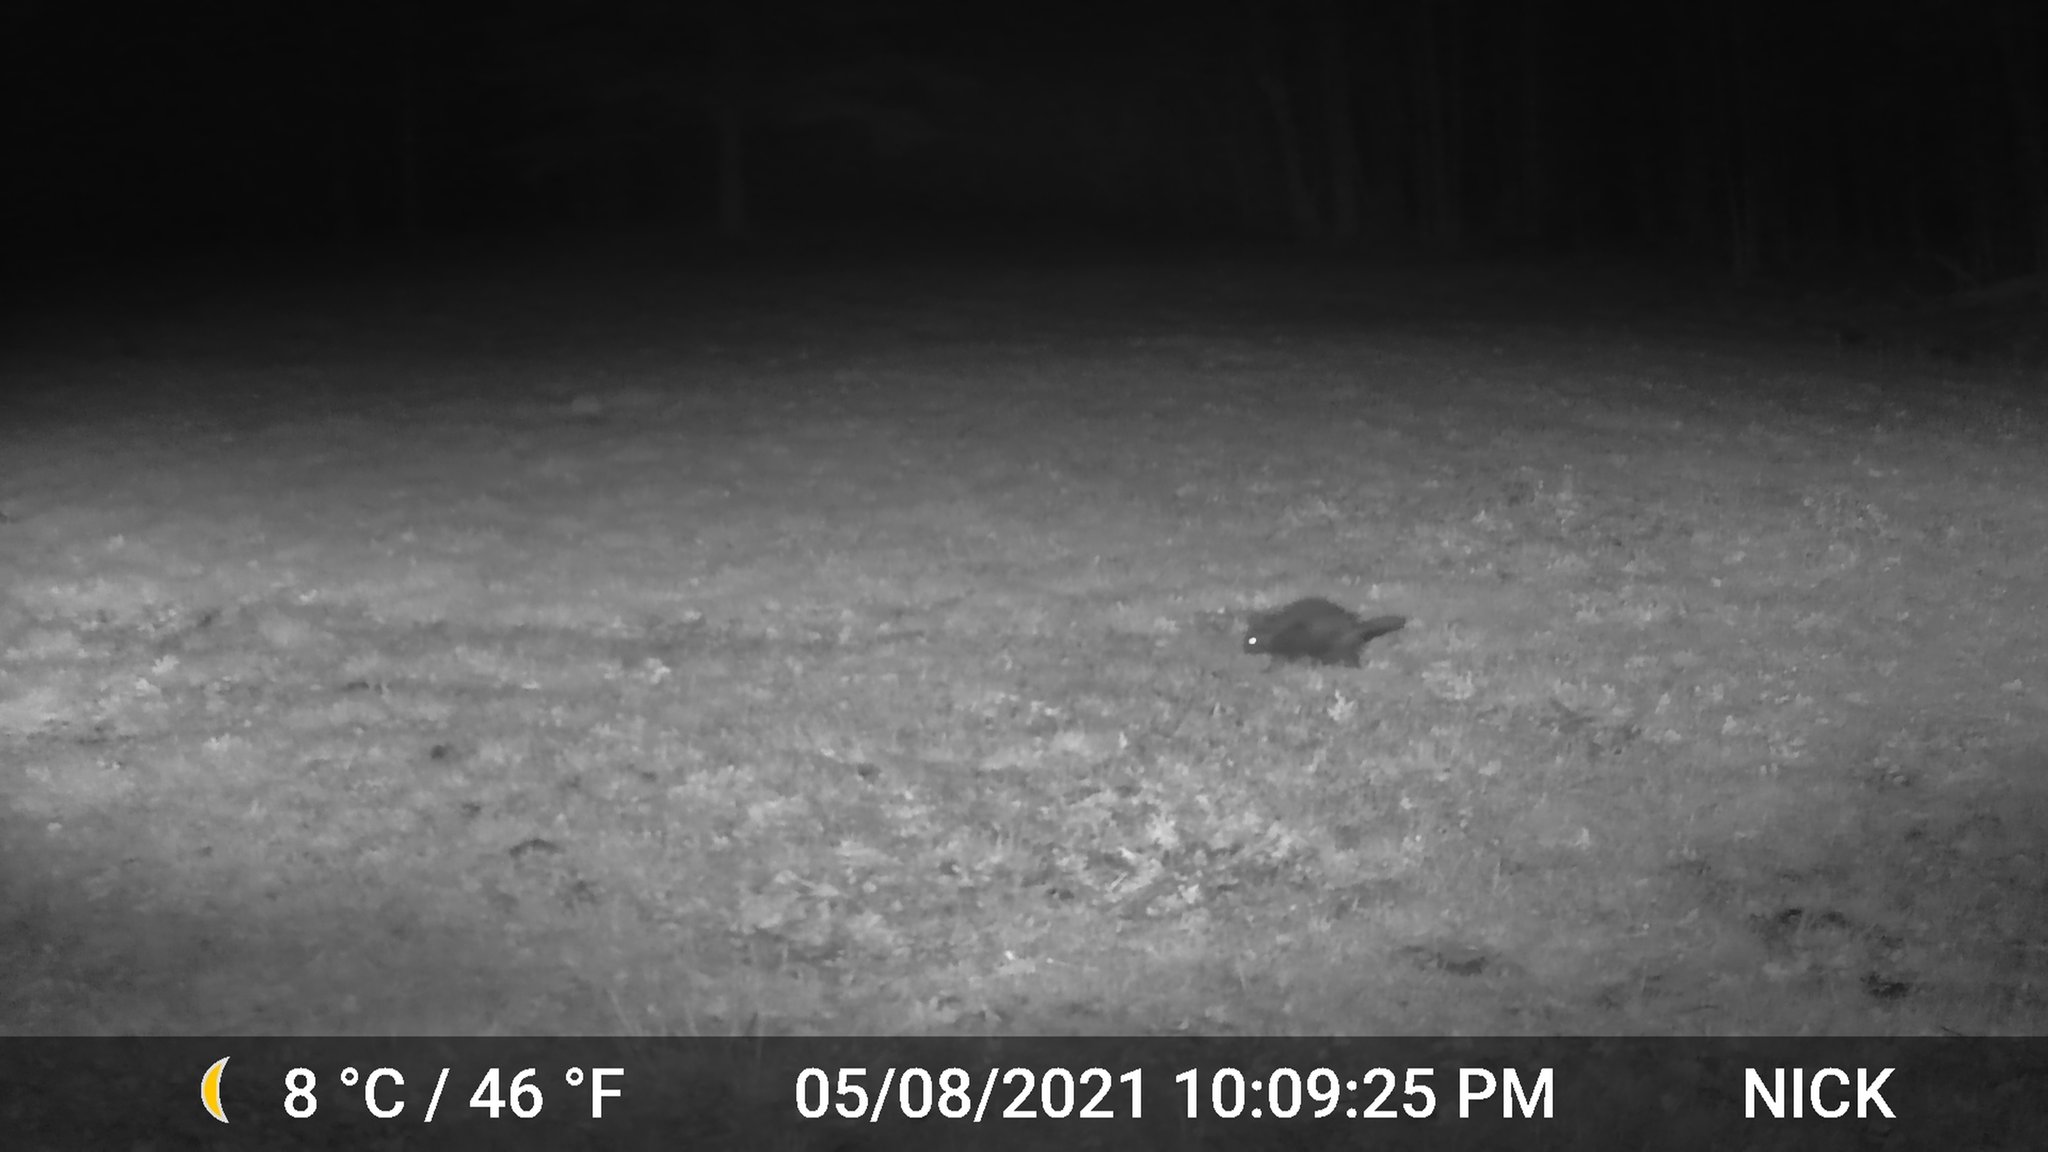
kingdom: Animalia
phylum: Chordata
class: Mammalia
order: Rodentia
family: Erethizontidae
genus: Erethizon
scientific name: Erethizon dorsatus
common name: North american porcupine
